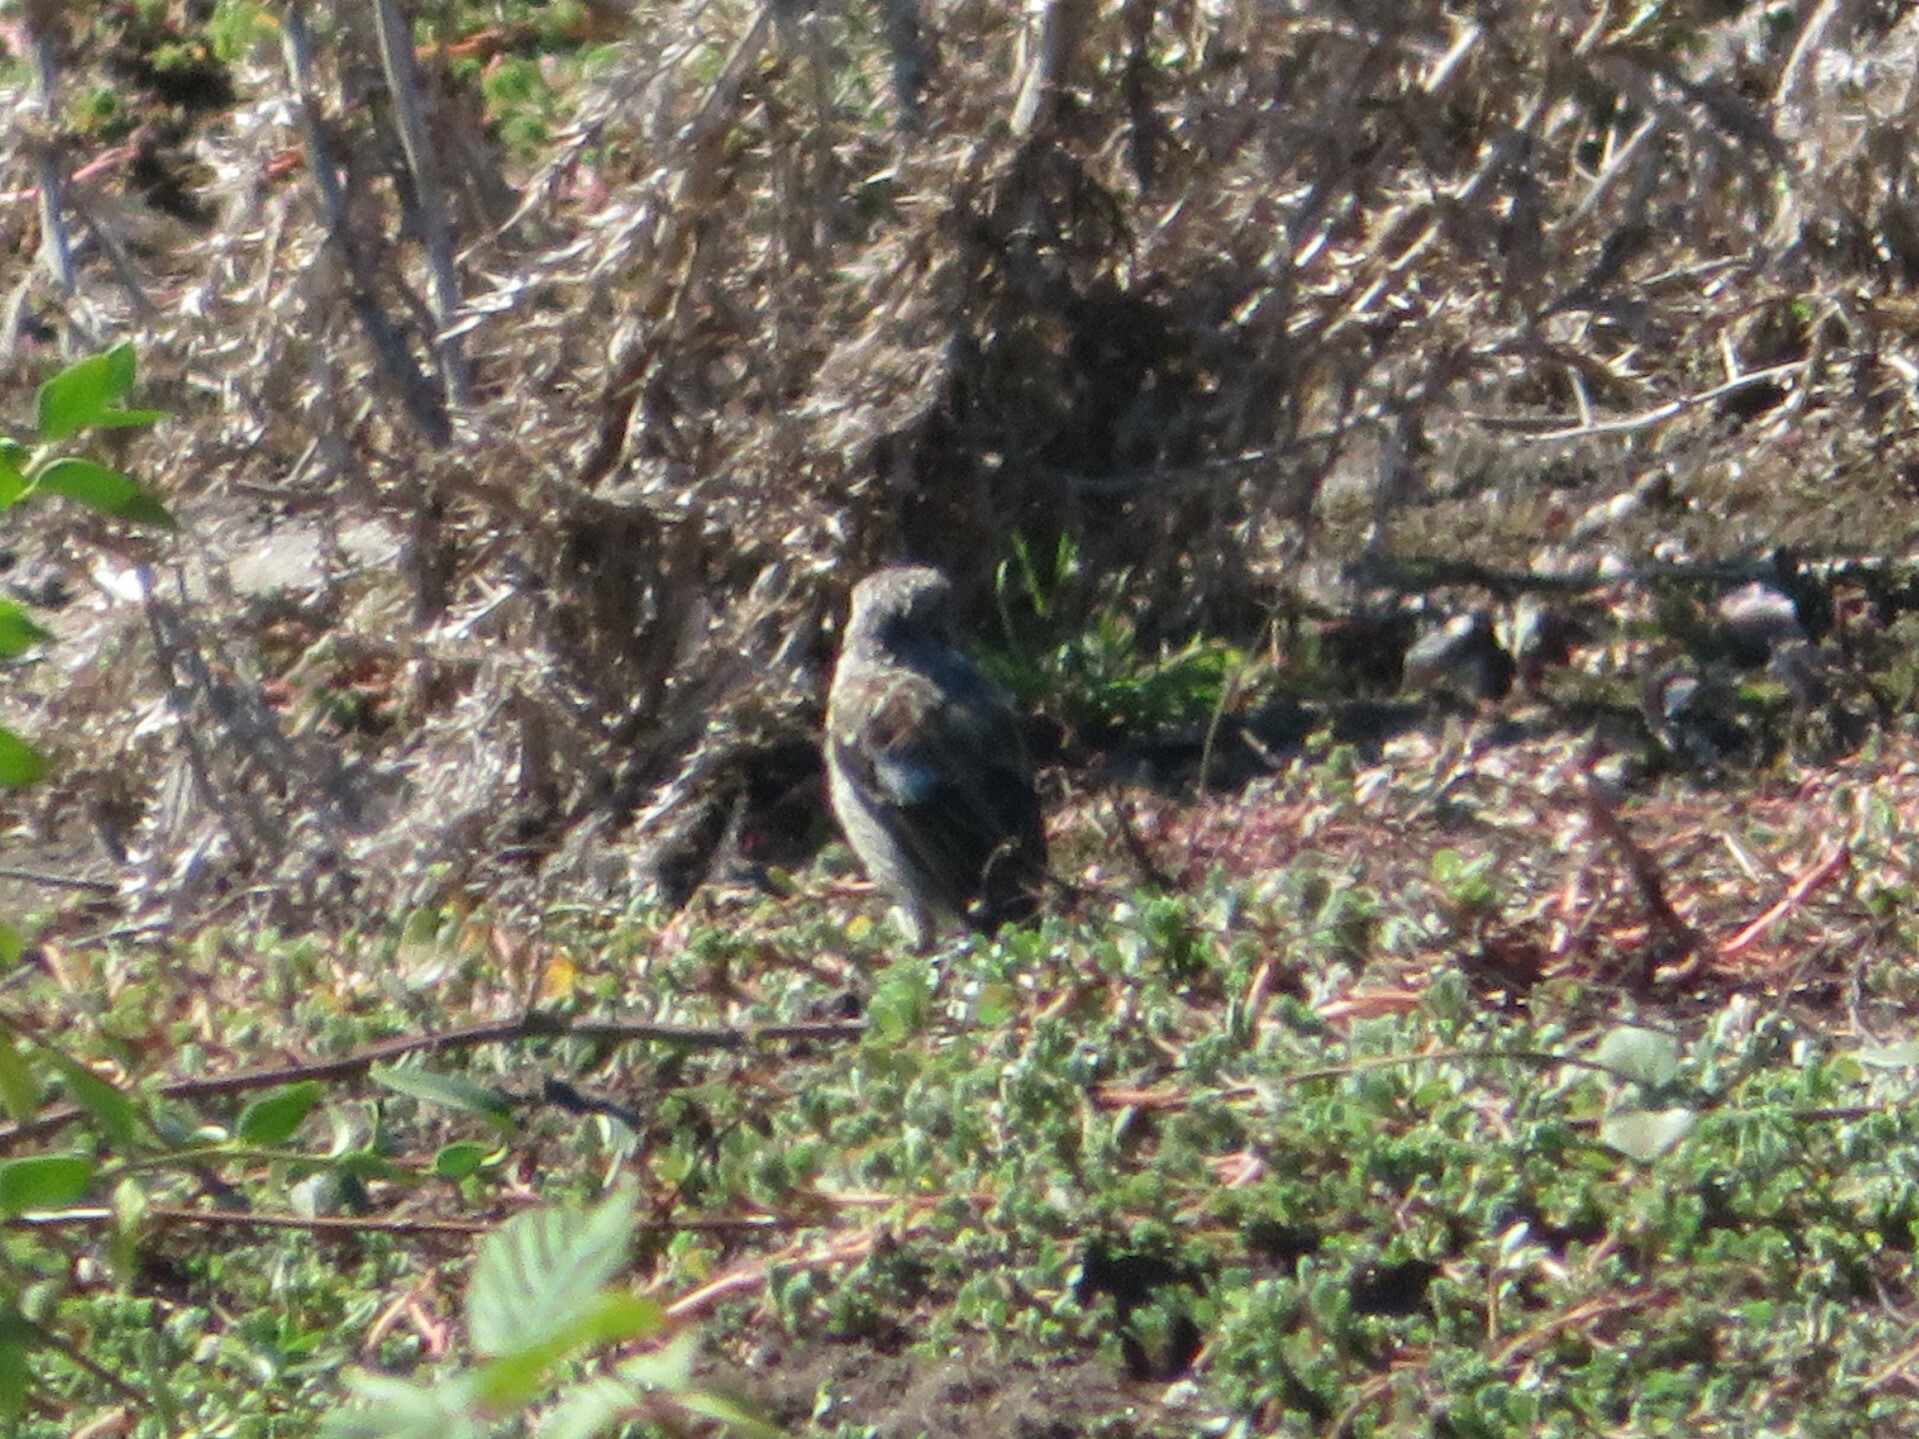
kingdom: Animalia
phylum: Chordata
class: Aves
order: Passeriformes
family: Muscicapidae
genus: Saxicola
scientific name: Saxicola rubicola
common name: European stonechat
